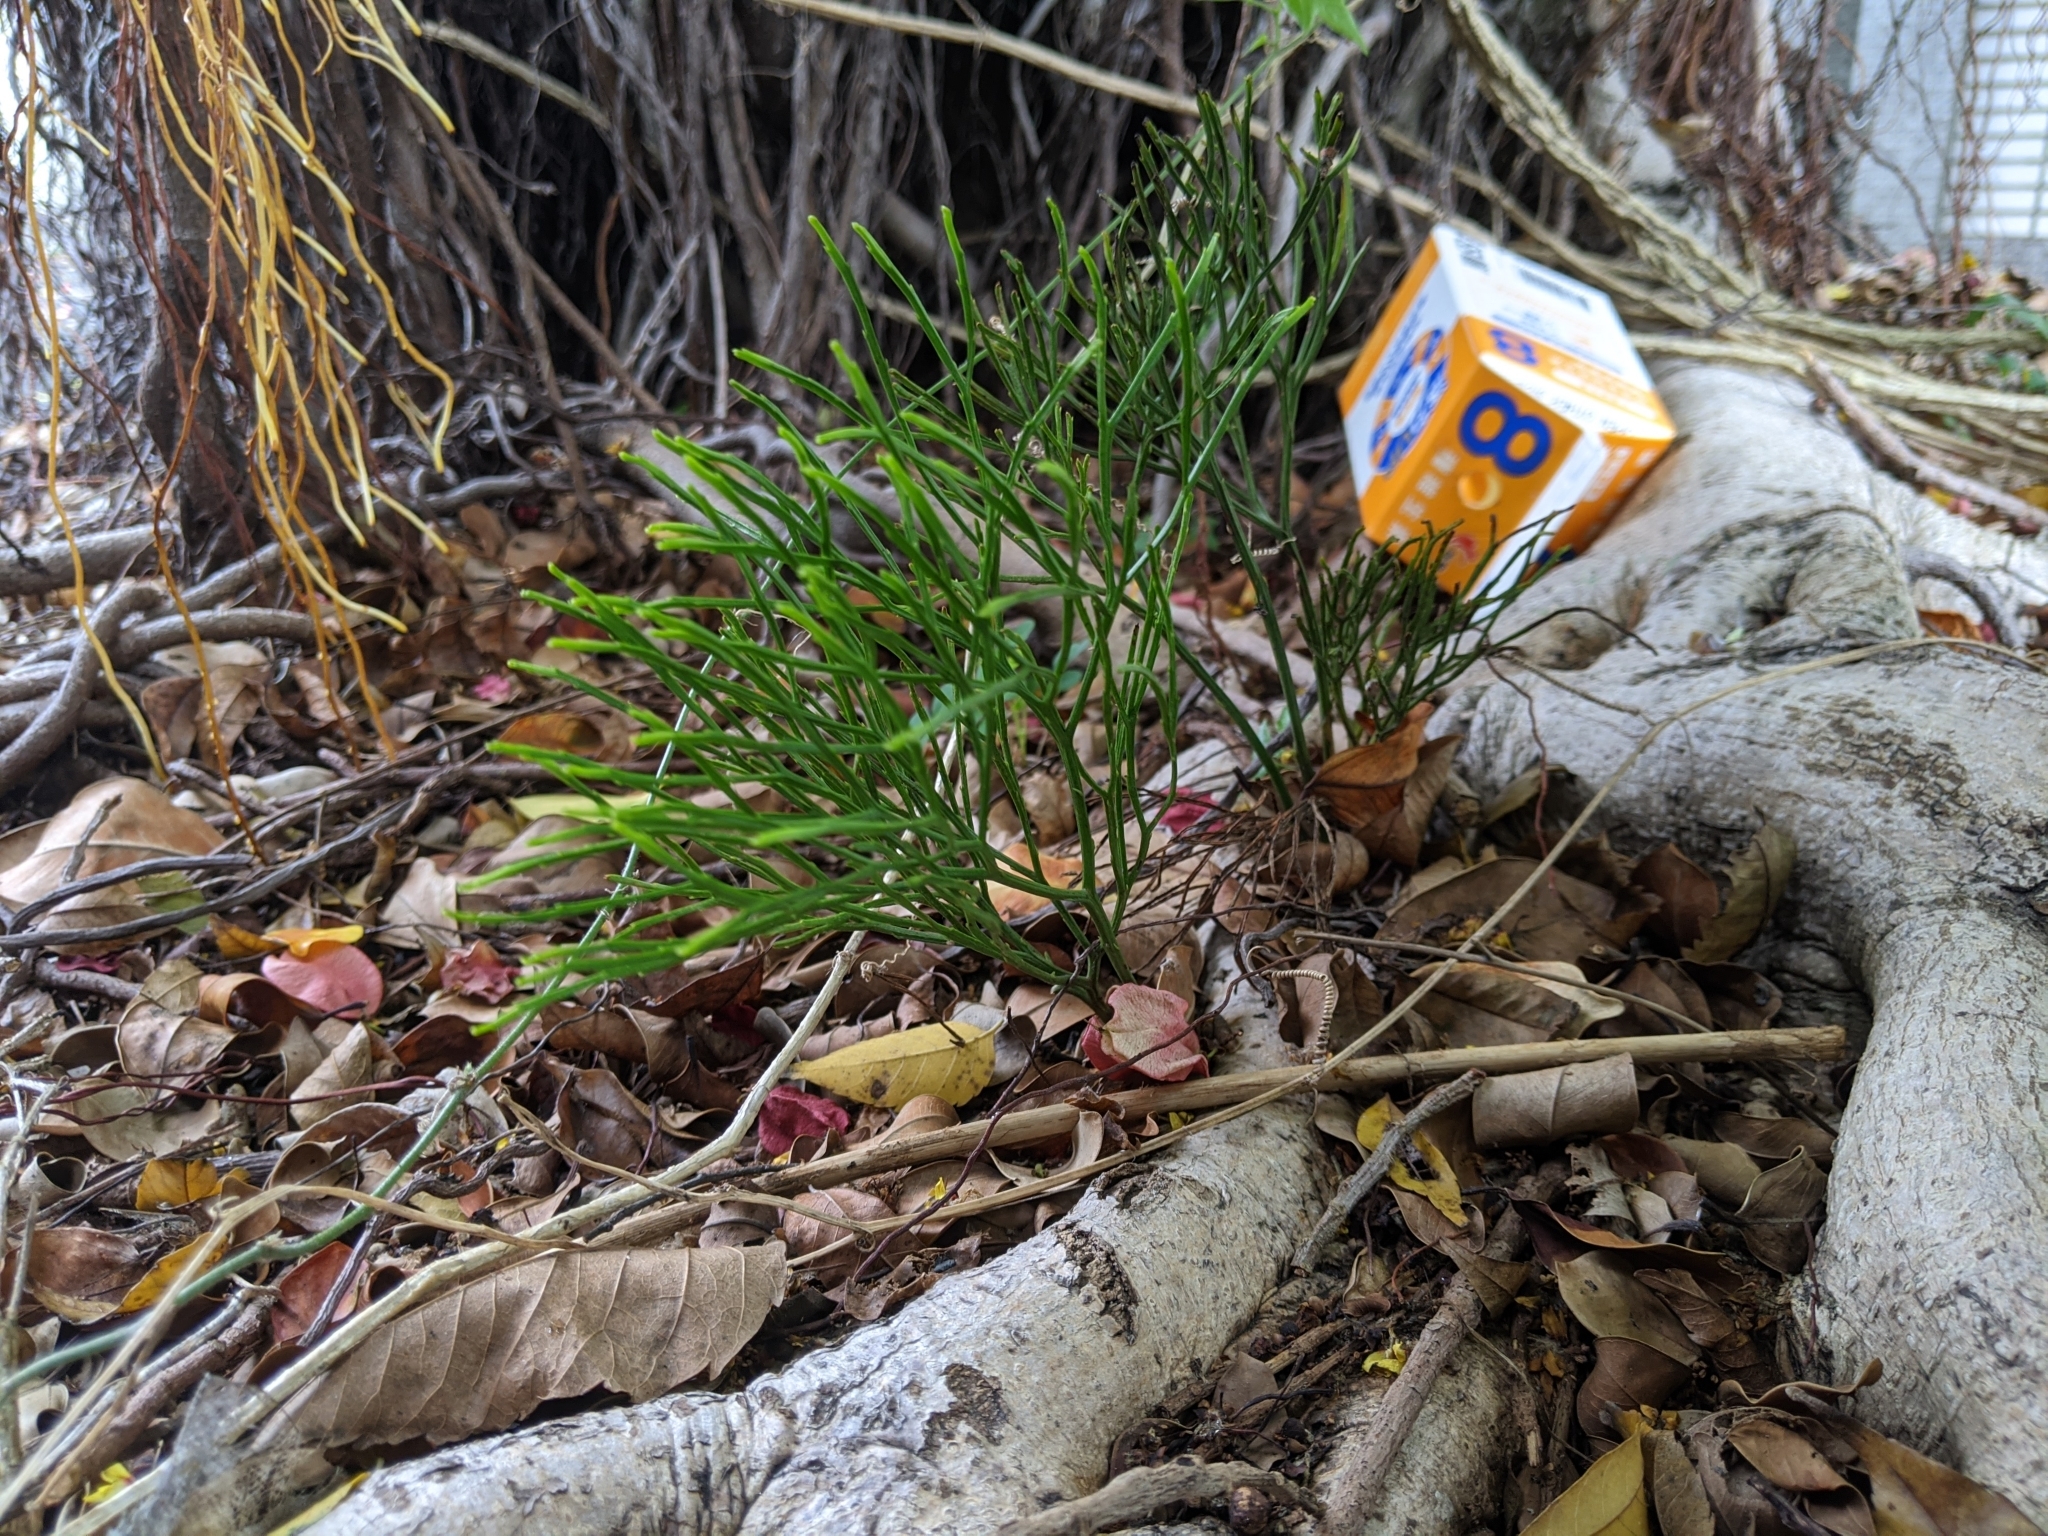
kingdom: Plantae
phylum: Tracheophyta
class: Polypodiopsida
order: Psilotales
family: Psilotaceae
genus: Psilotum
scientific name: Psilotum nudum
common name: Skeleton fork fern
